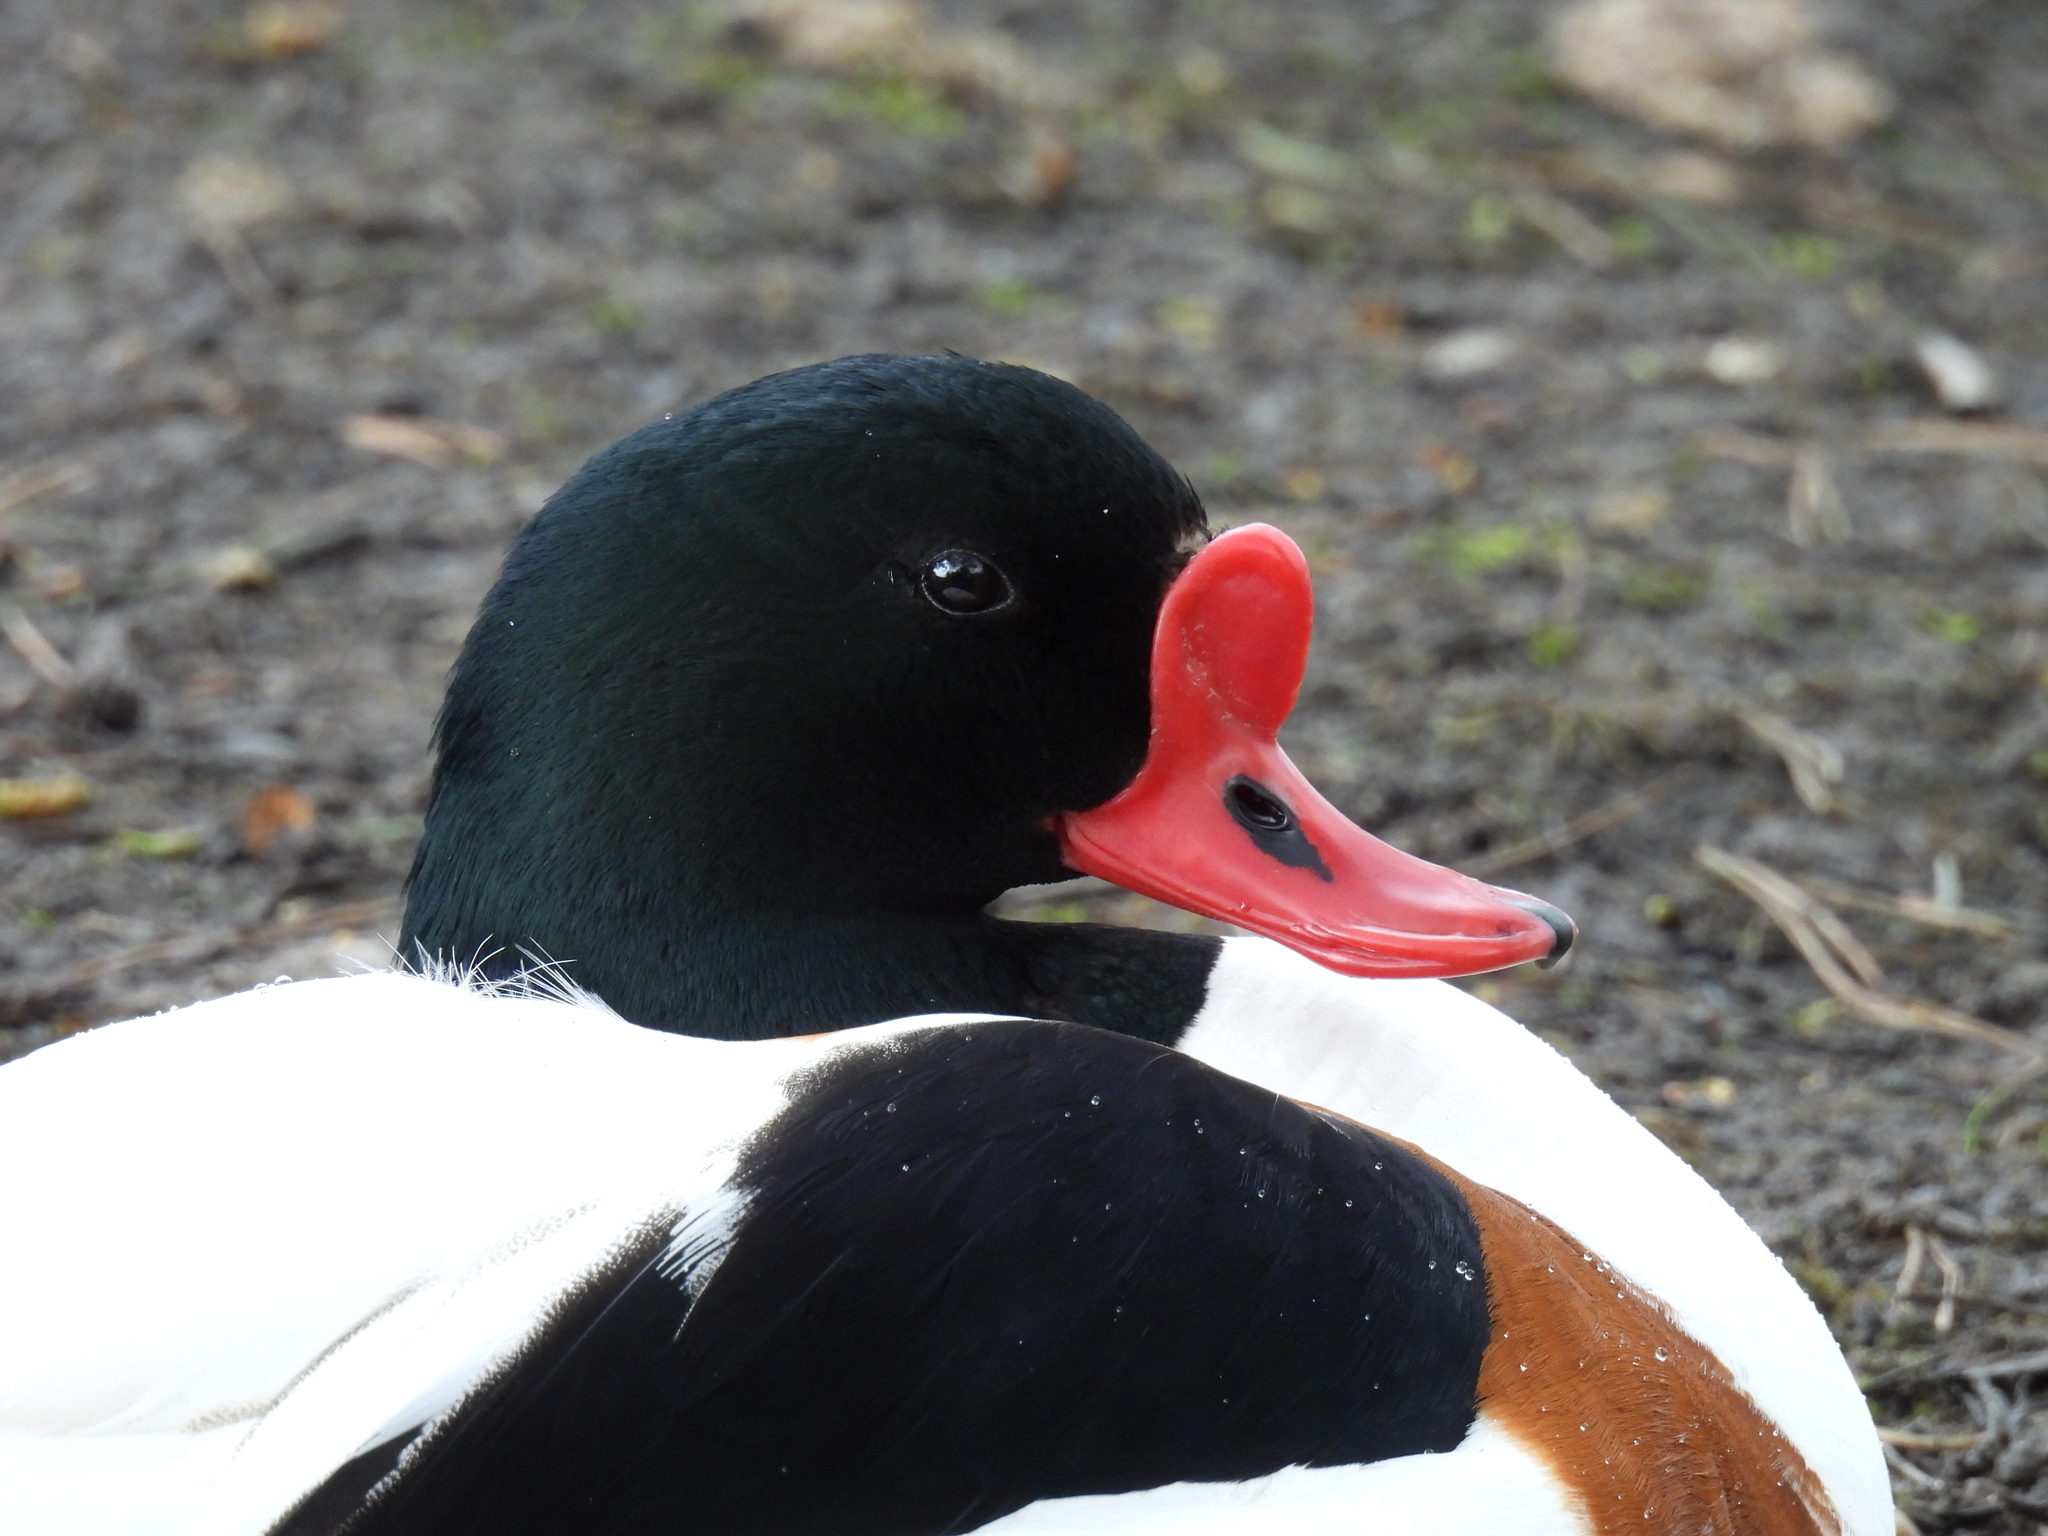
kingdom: Animalia
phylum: Chordata
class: Aves
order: Anseriformes
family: Anatidae
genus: Tadorna
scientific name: Tadorna tadorna
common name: Common shelduck
